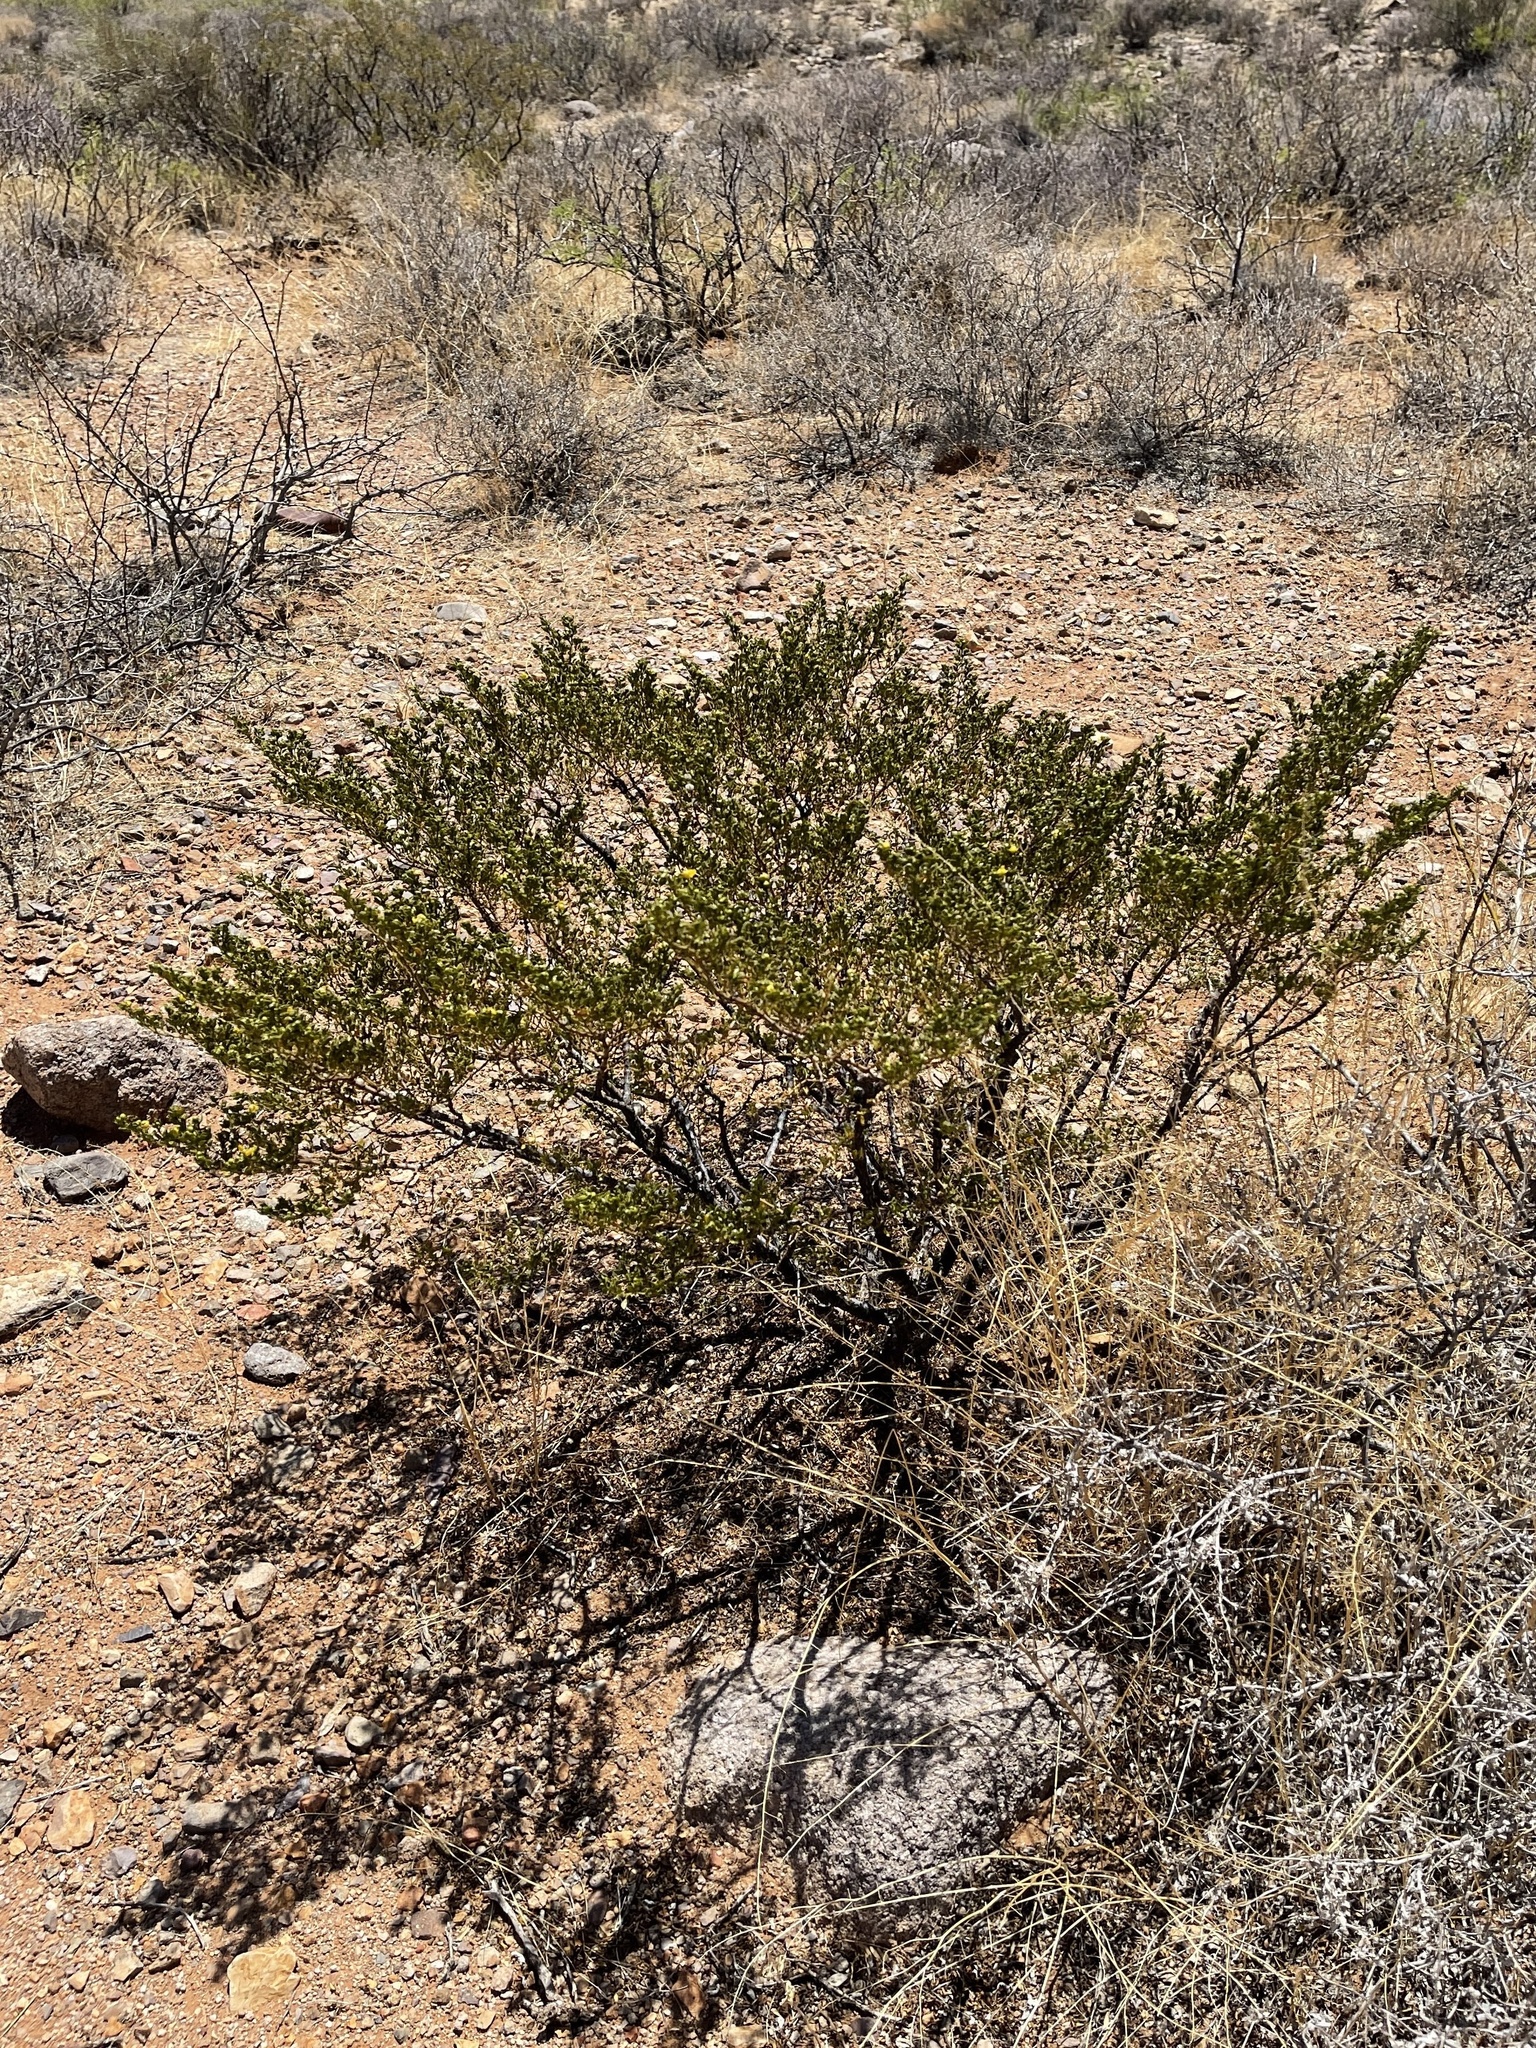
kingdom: Plantae
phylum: Tracheophyta
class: Magnoliopsida
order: Zygophyllales
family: Zygophyllaceae
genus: Larrea
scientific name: Larrea tridentata
